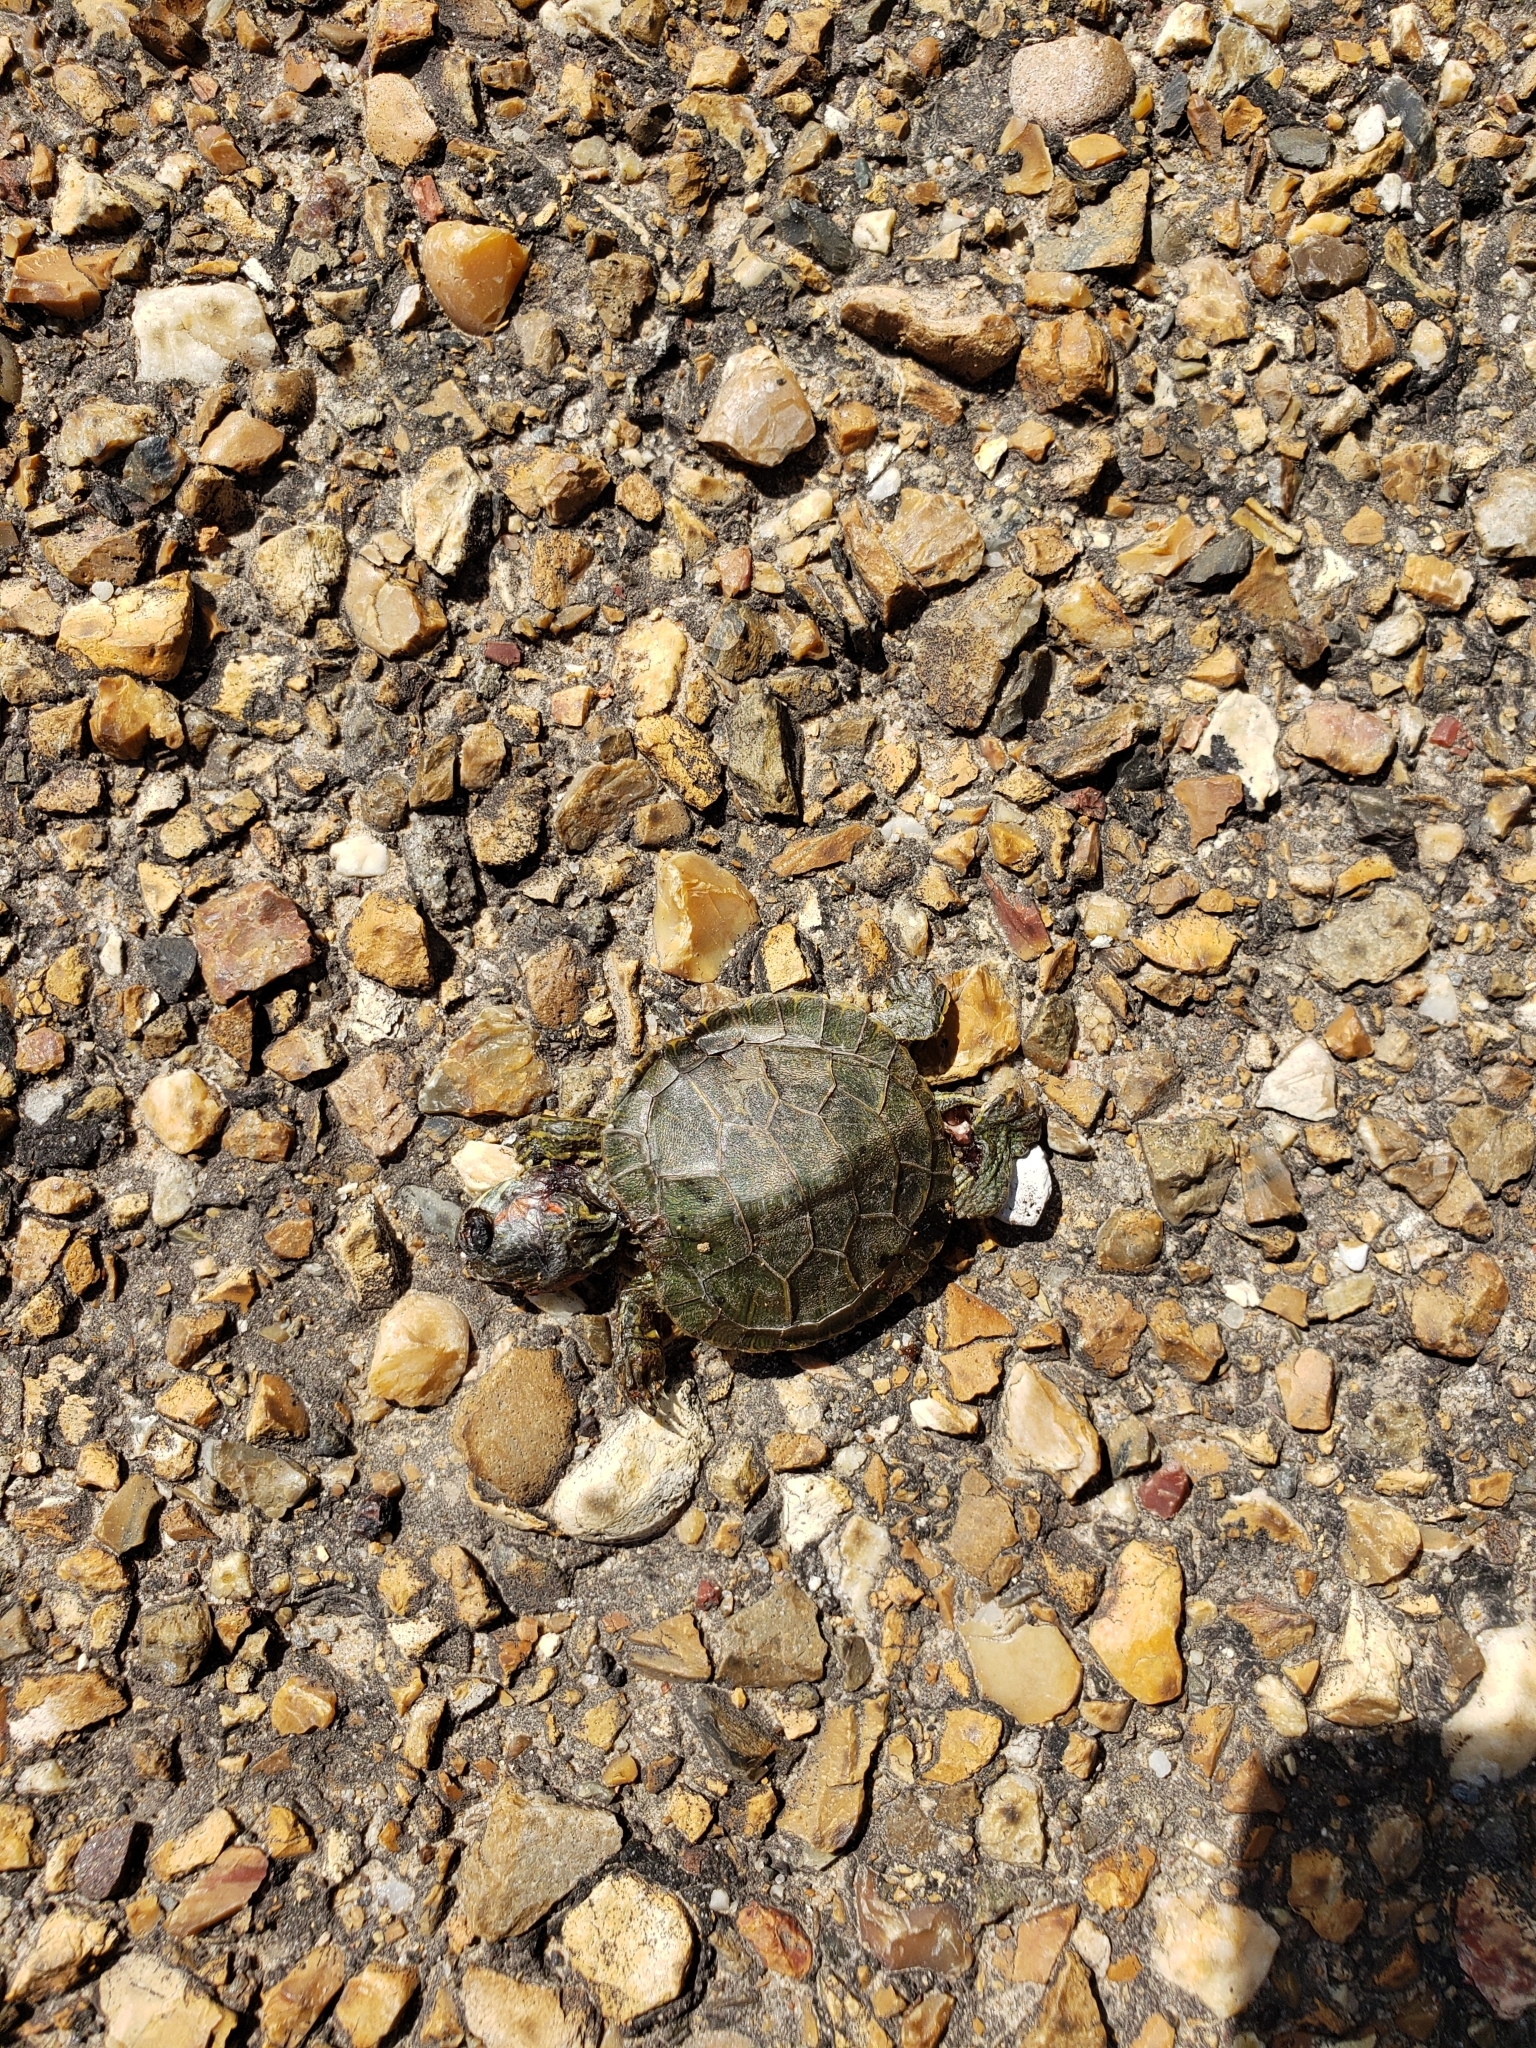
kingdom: Animalia
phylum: Chordata
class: Testudines
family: Emydidae
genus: Trachemys
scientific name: Trachemys scripta
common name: Slider
